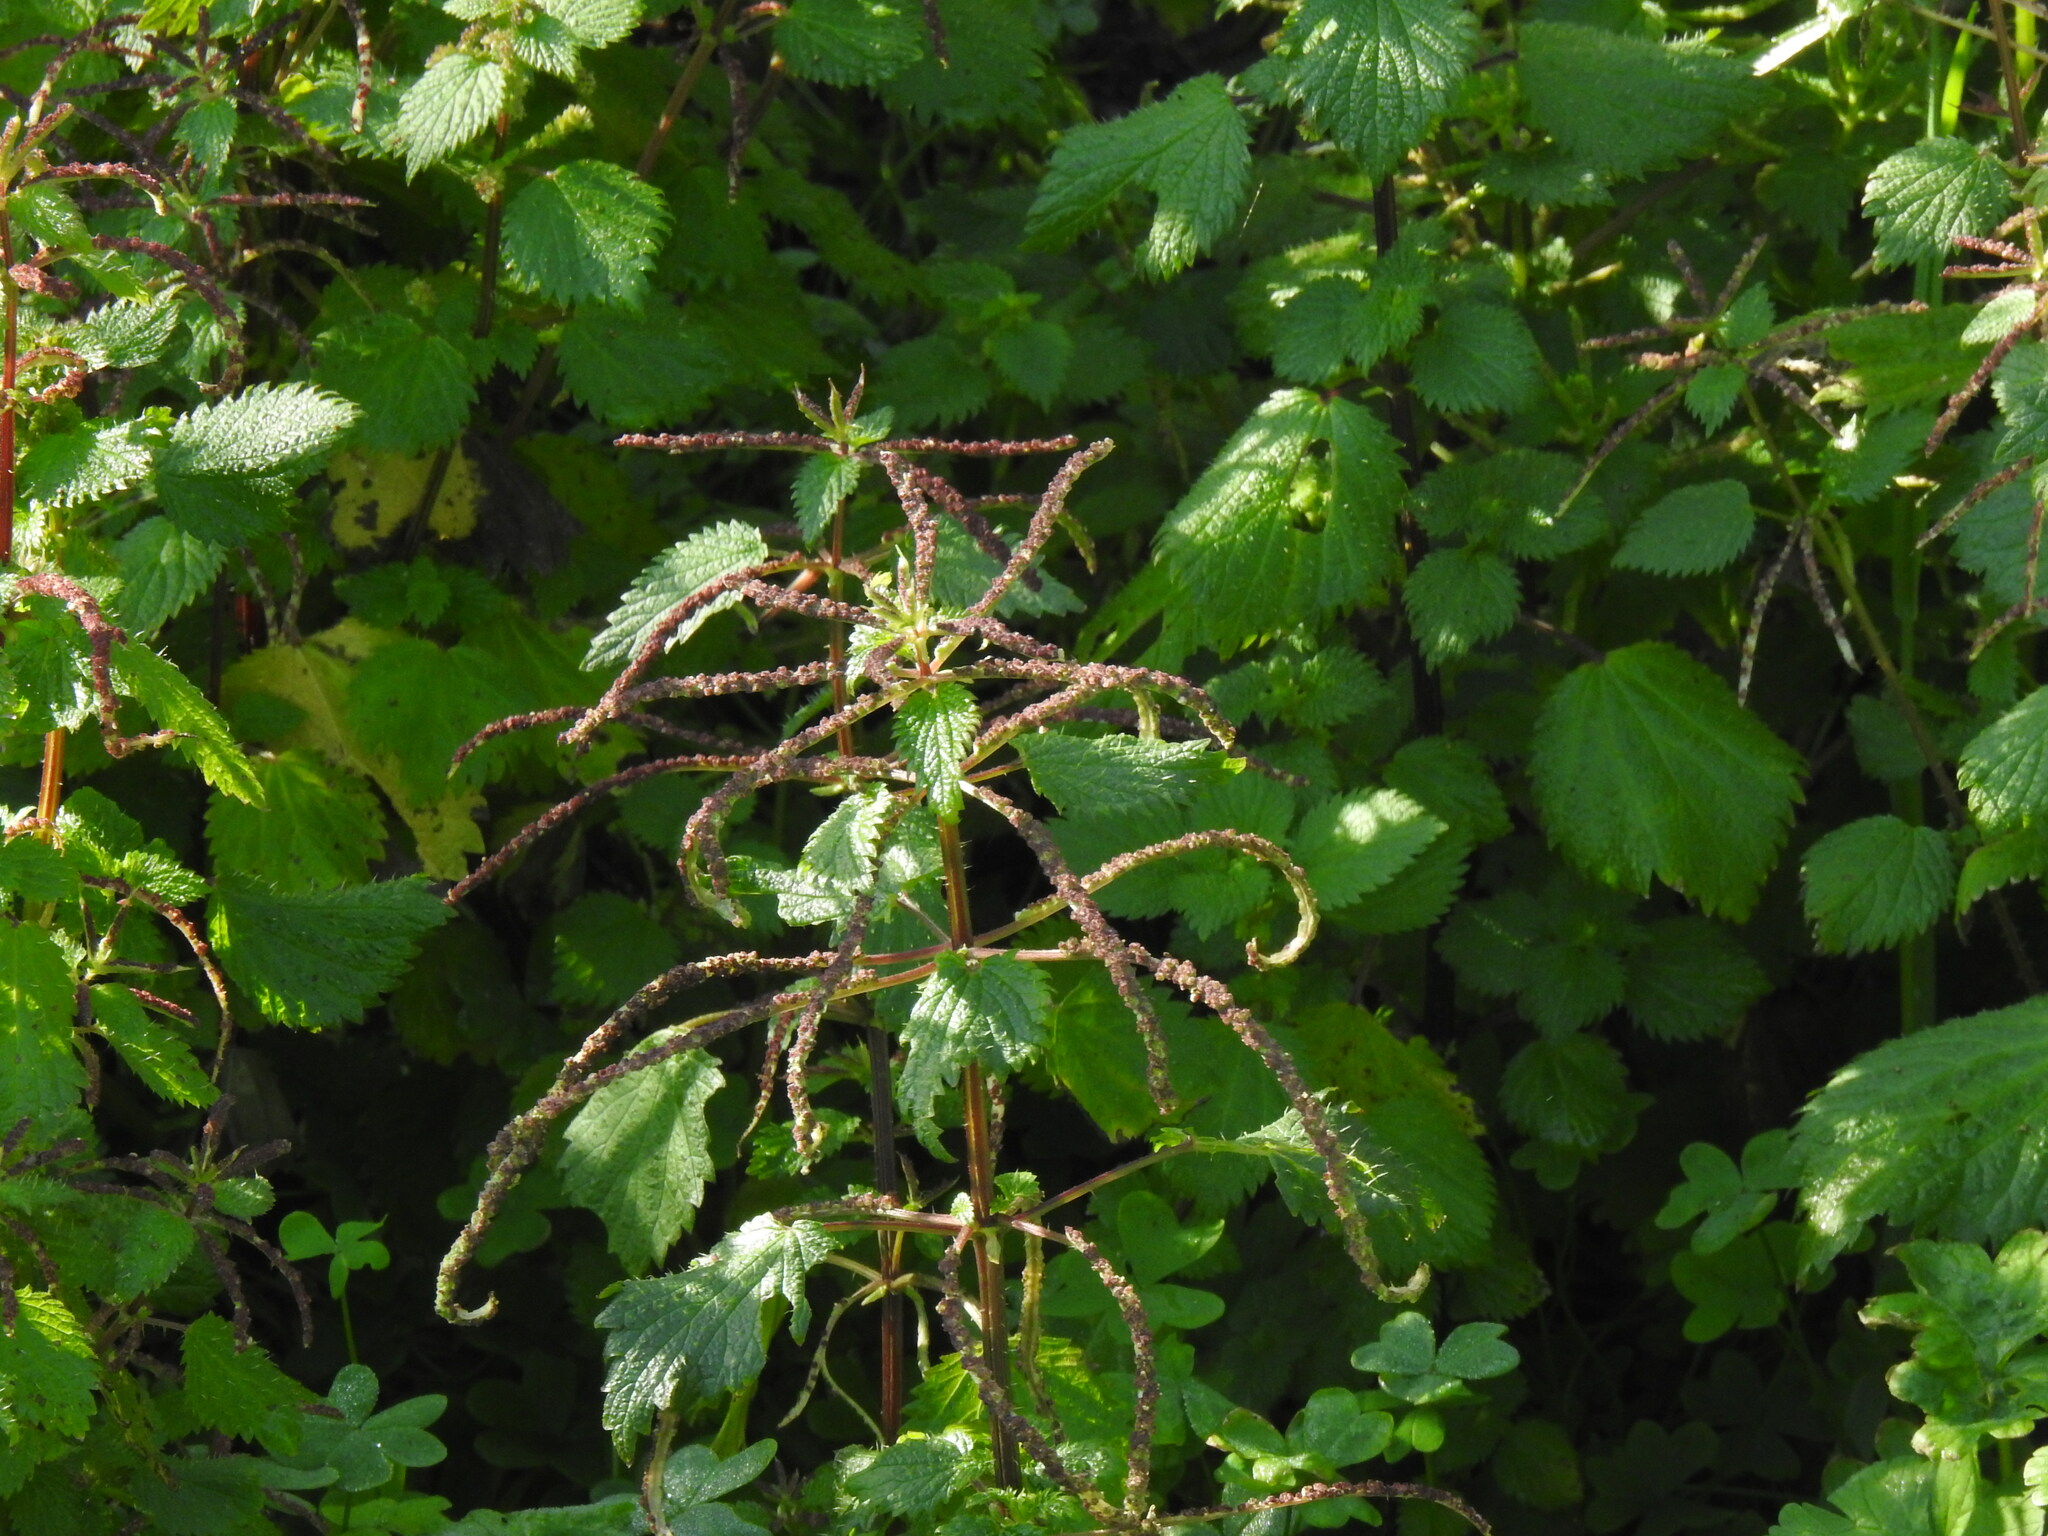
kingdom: Plantae
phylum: Tracheophyta
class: Magnoliopsida
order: Rosales
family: Urticaceae
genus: Urtica
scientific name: Urtica membranacea
